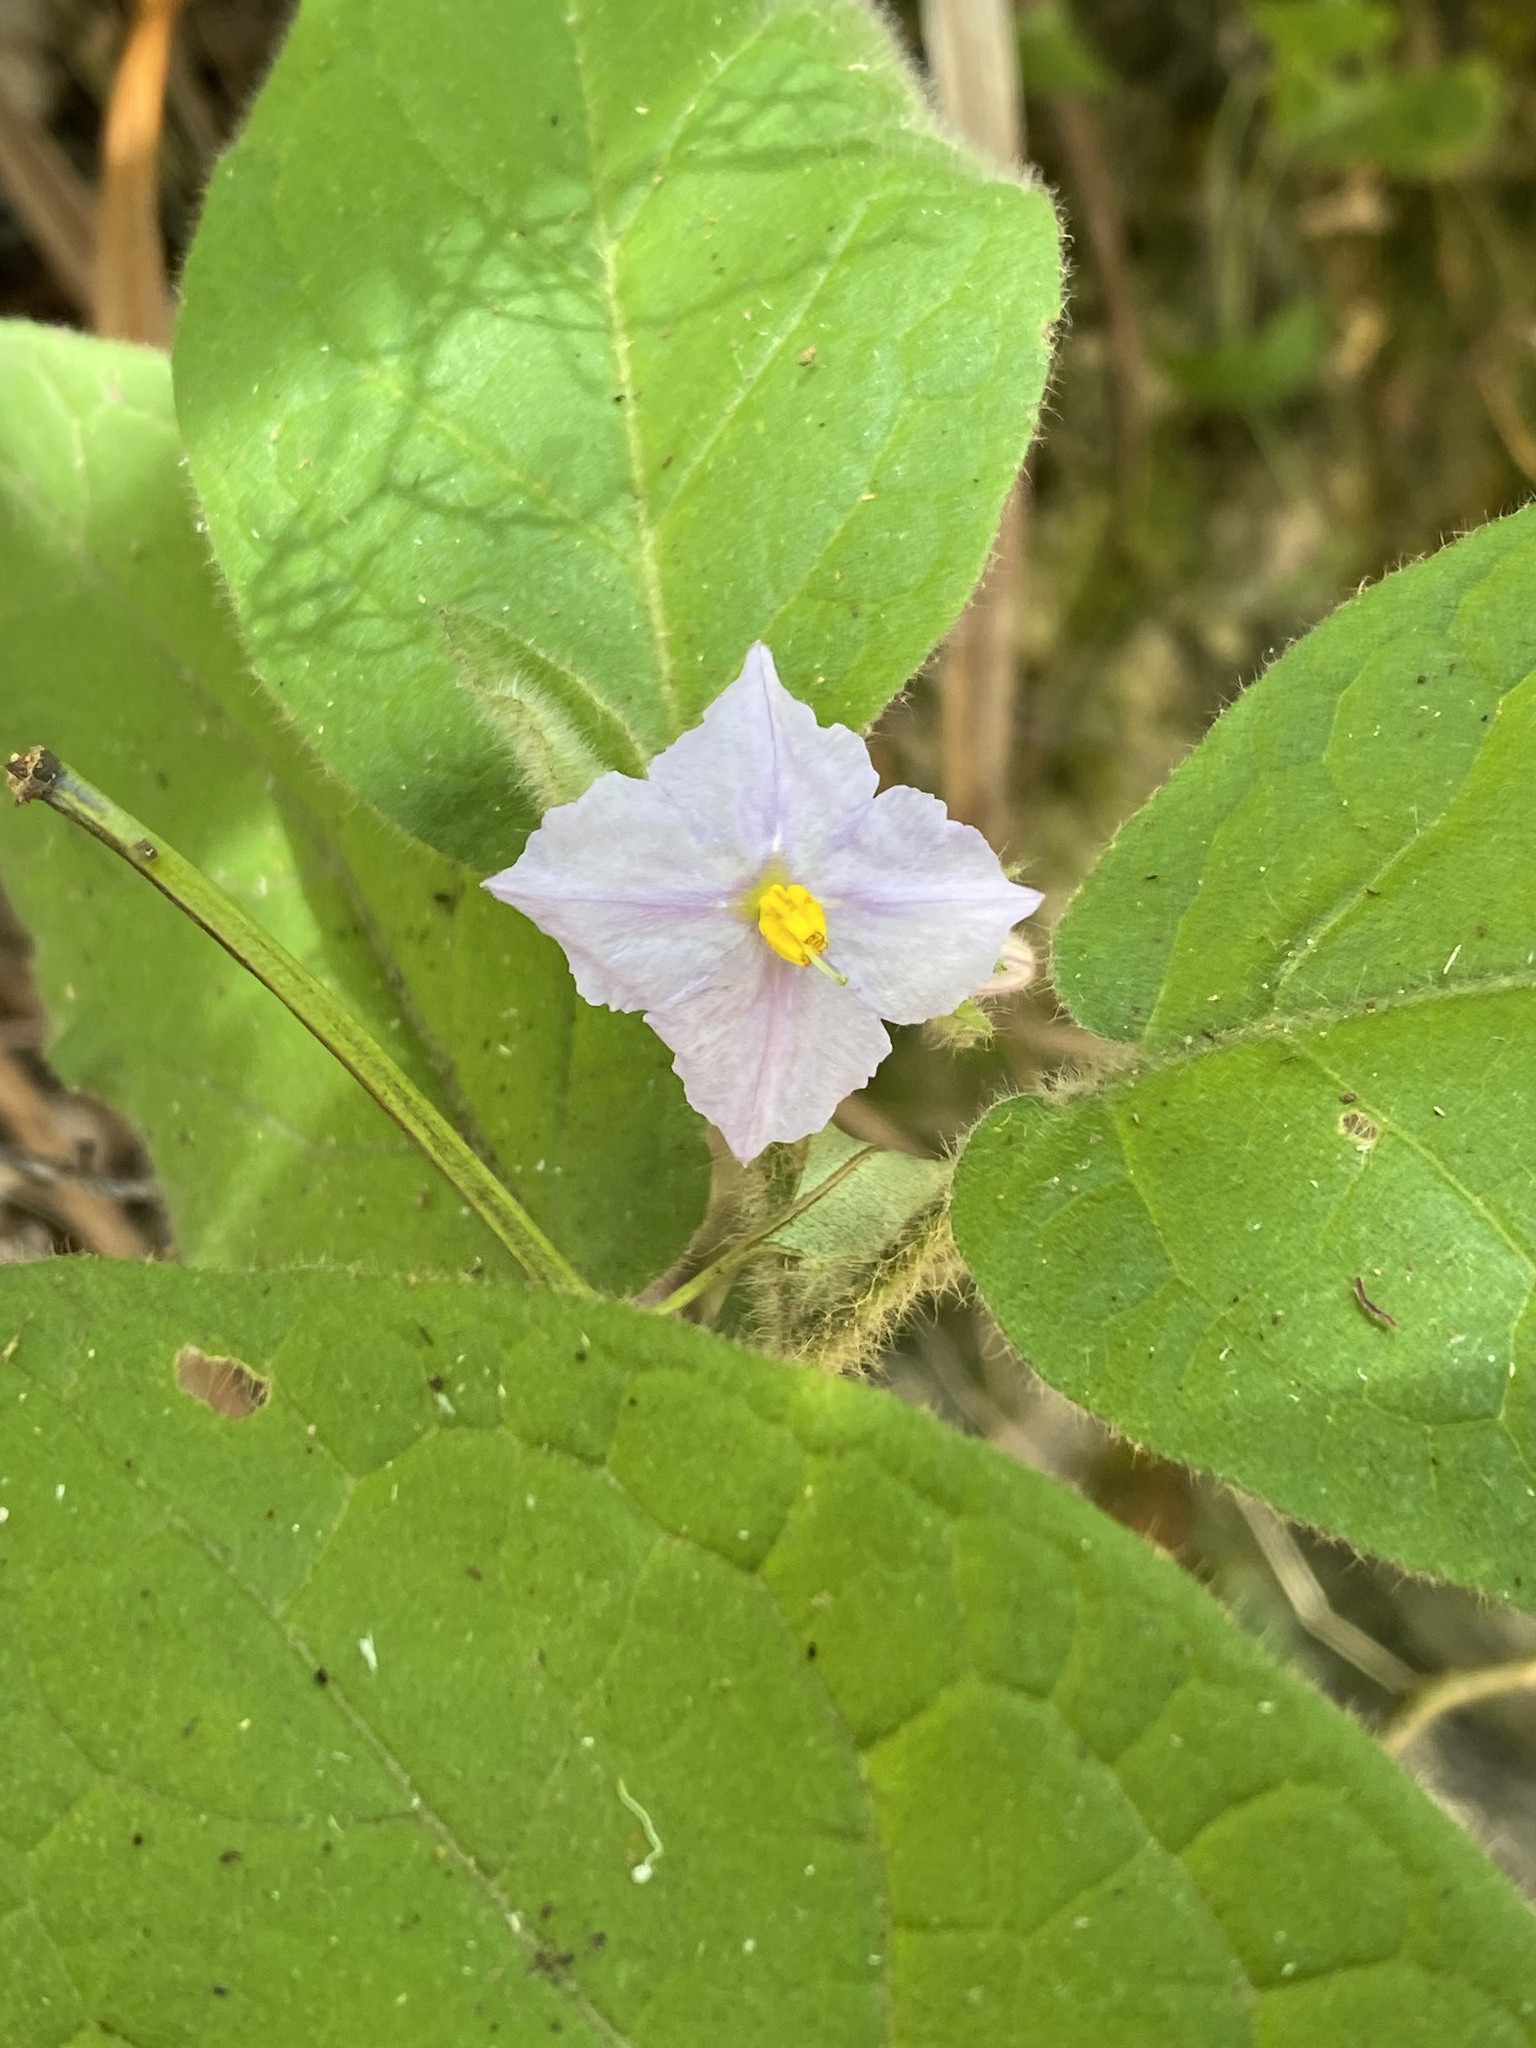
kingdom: Plantae
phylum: Tracheophyta
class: Magnoliopsida
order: Solanales
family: Solanaceae
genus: Solanum
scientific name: Solanum densevestitum
